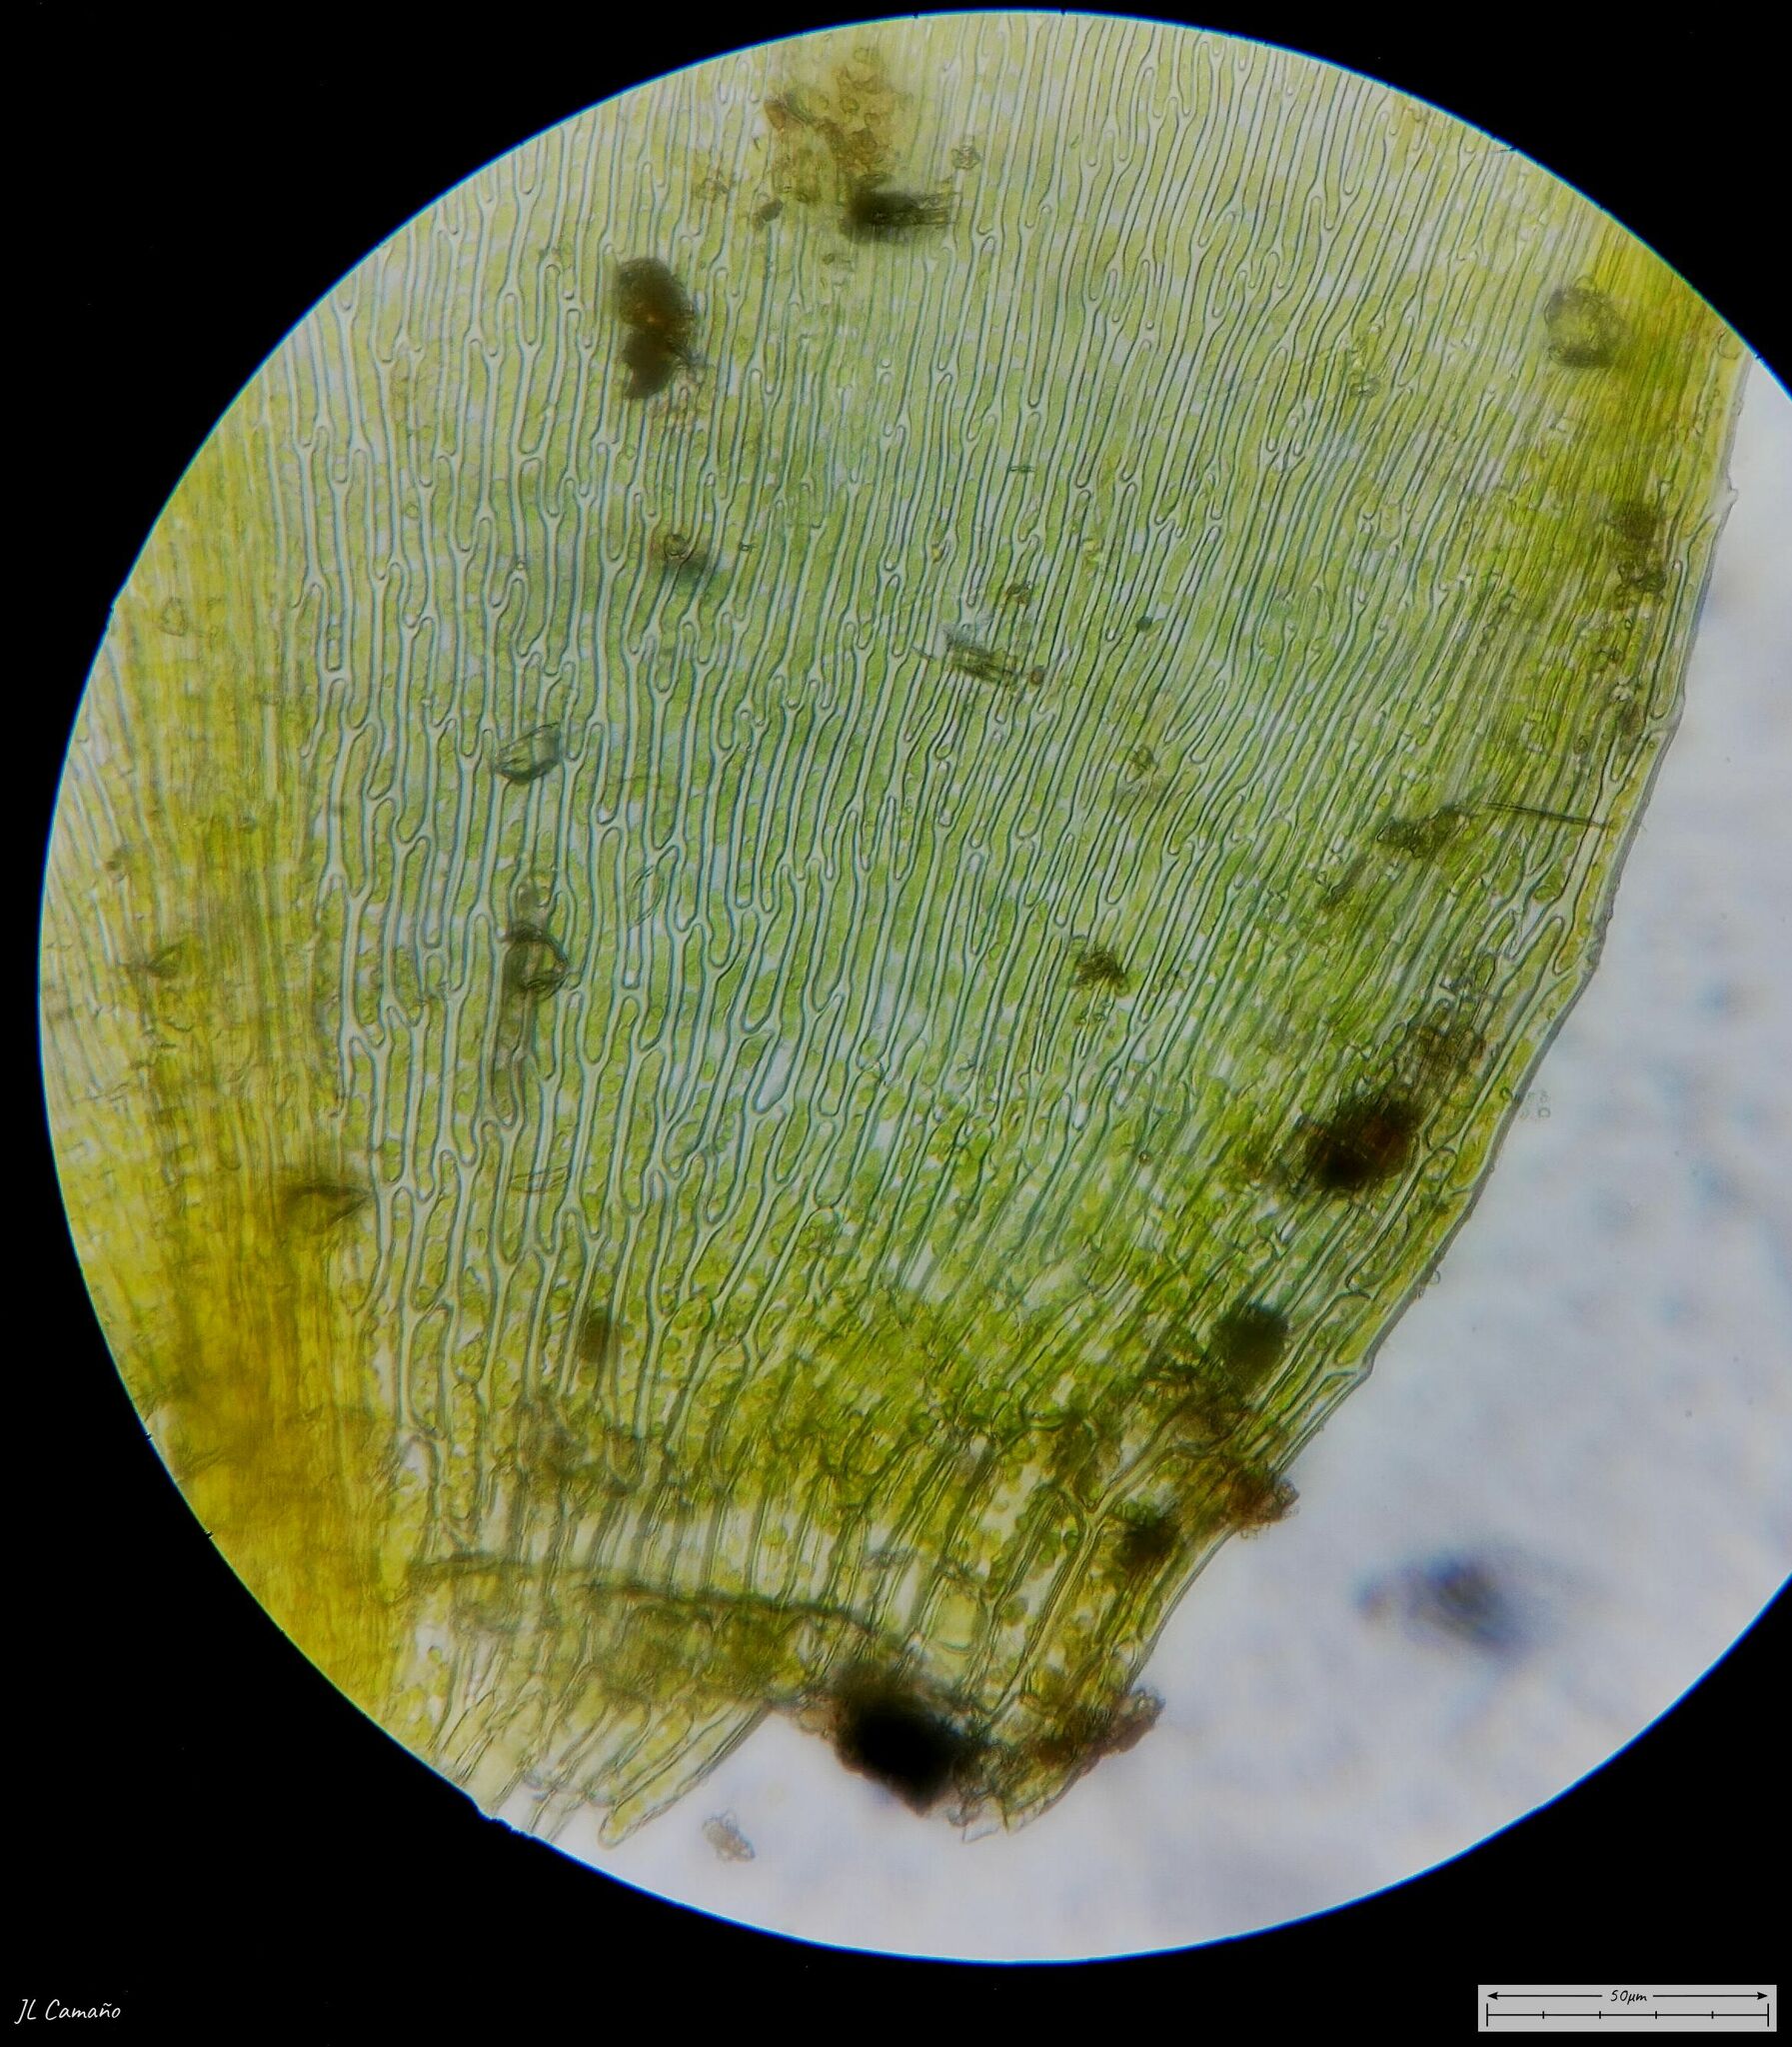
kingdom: Plantae
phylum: Bryophyta
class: Bryopsida
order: Hypnales
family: Brachytheciaceae
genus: Rhynchostegium
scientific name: Rhynchostegium riparioides
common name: Platyhypnidium moss
